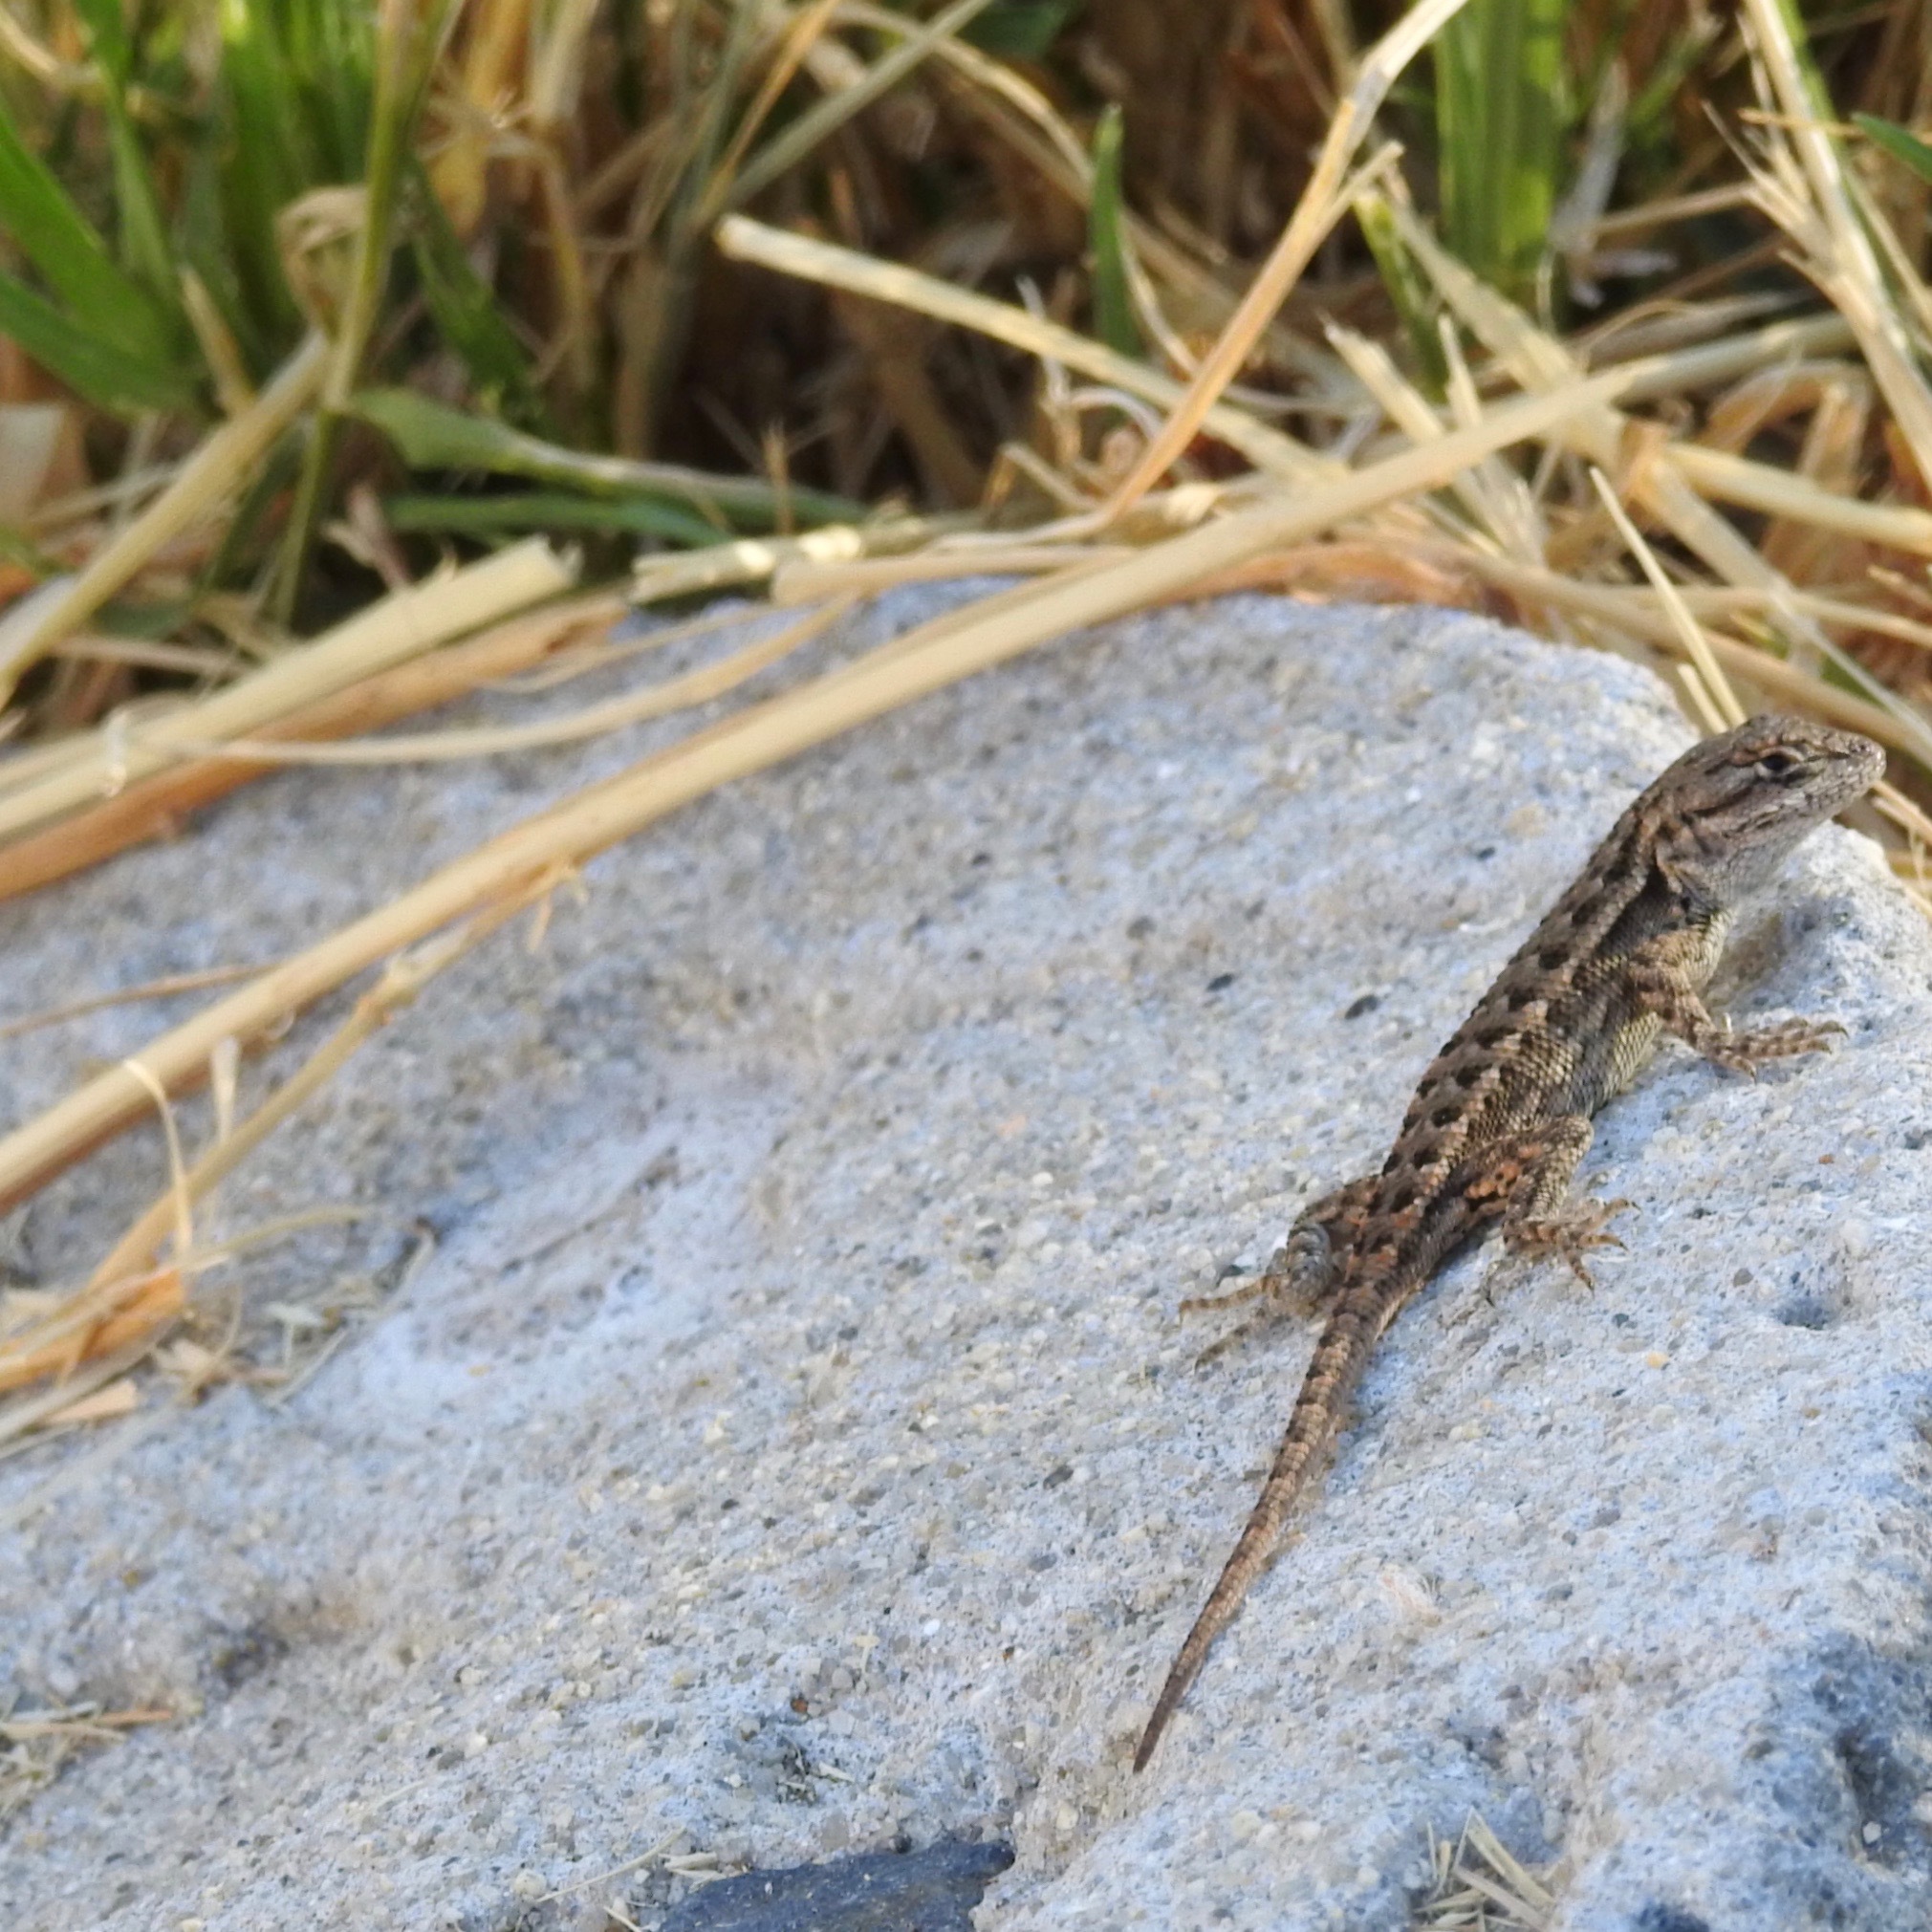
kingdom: Animalia
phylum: Chordata
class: Squamata
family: Phrynosomatidae
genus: Sceloporus
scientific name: Sceloporus occidentalis
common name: Western fence lizard
